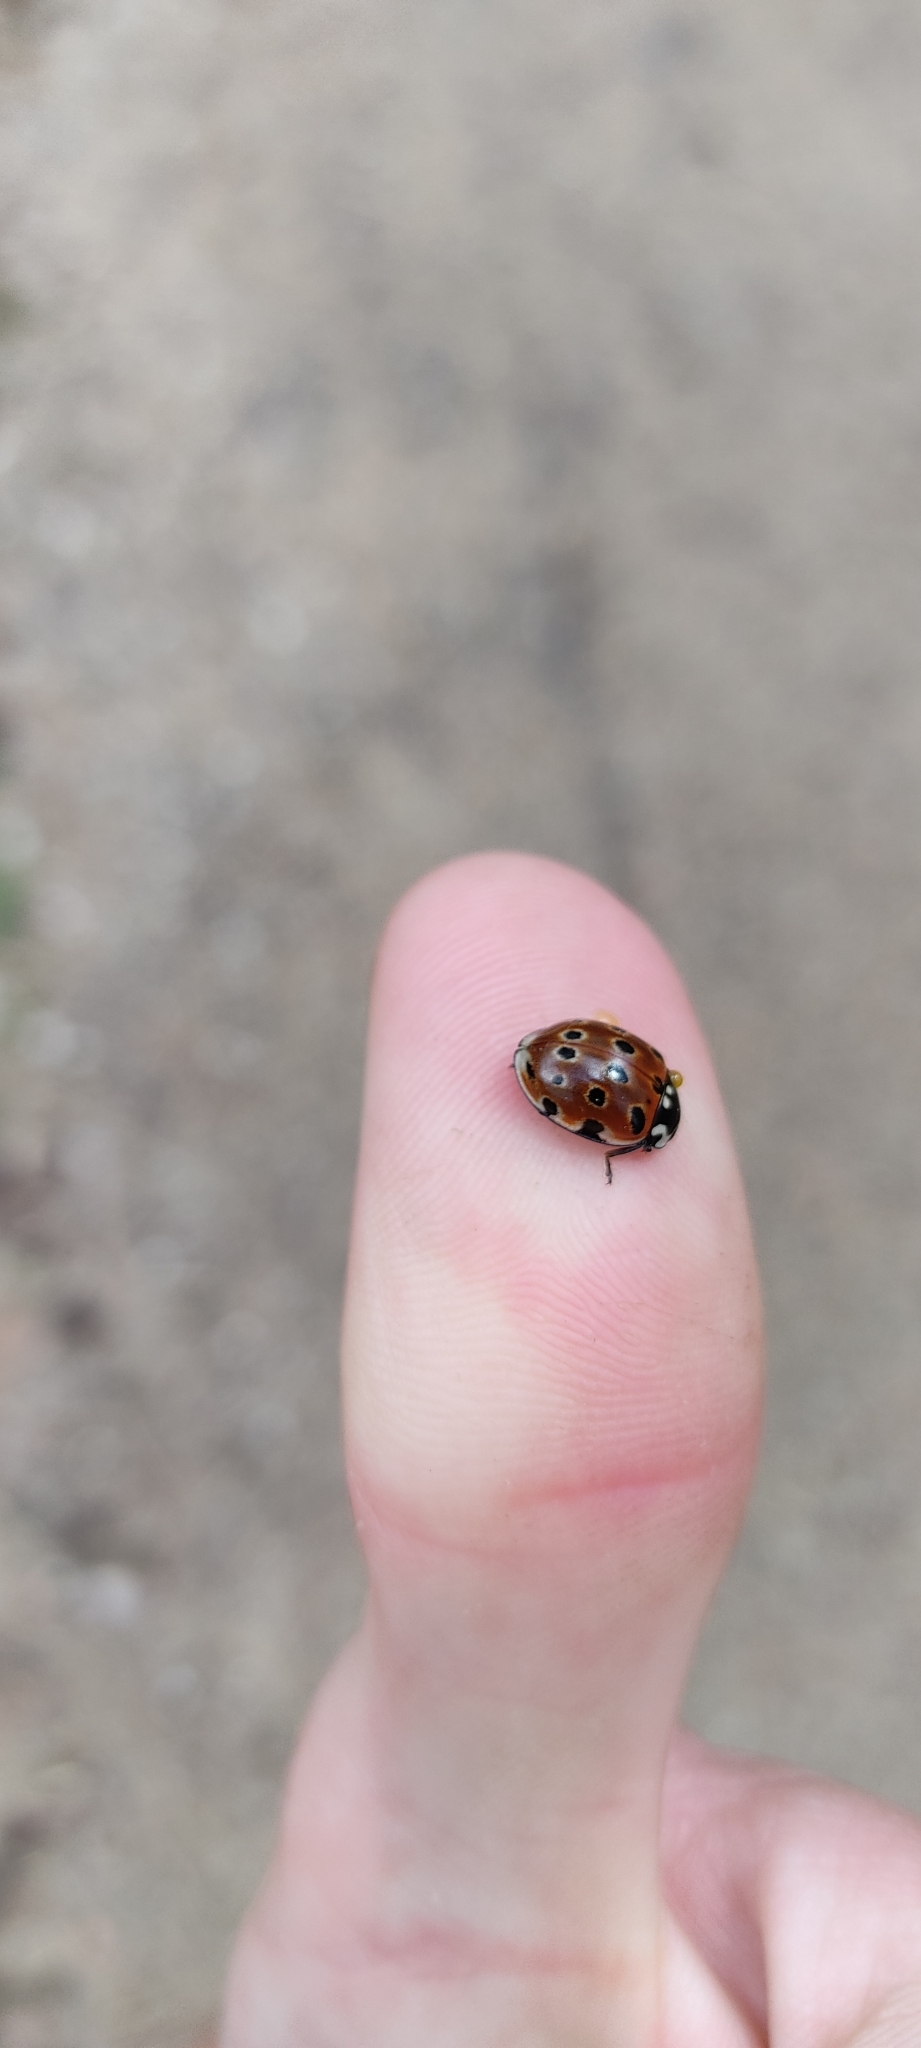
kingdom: Animalia
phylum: Arthropoda
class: Insecta
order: Coleoptera
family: Coccinellidae
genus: Anatis
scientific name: Anatis ocellata
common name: Eyed ladybird
